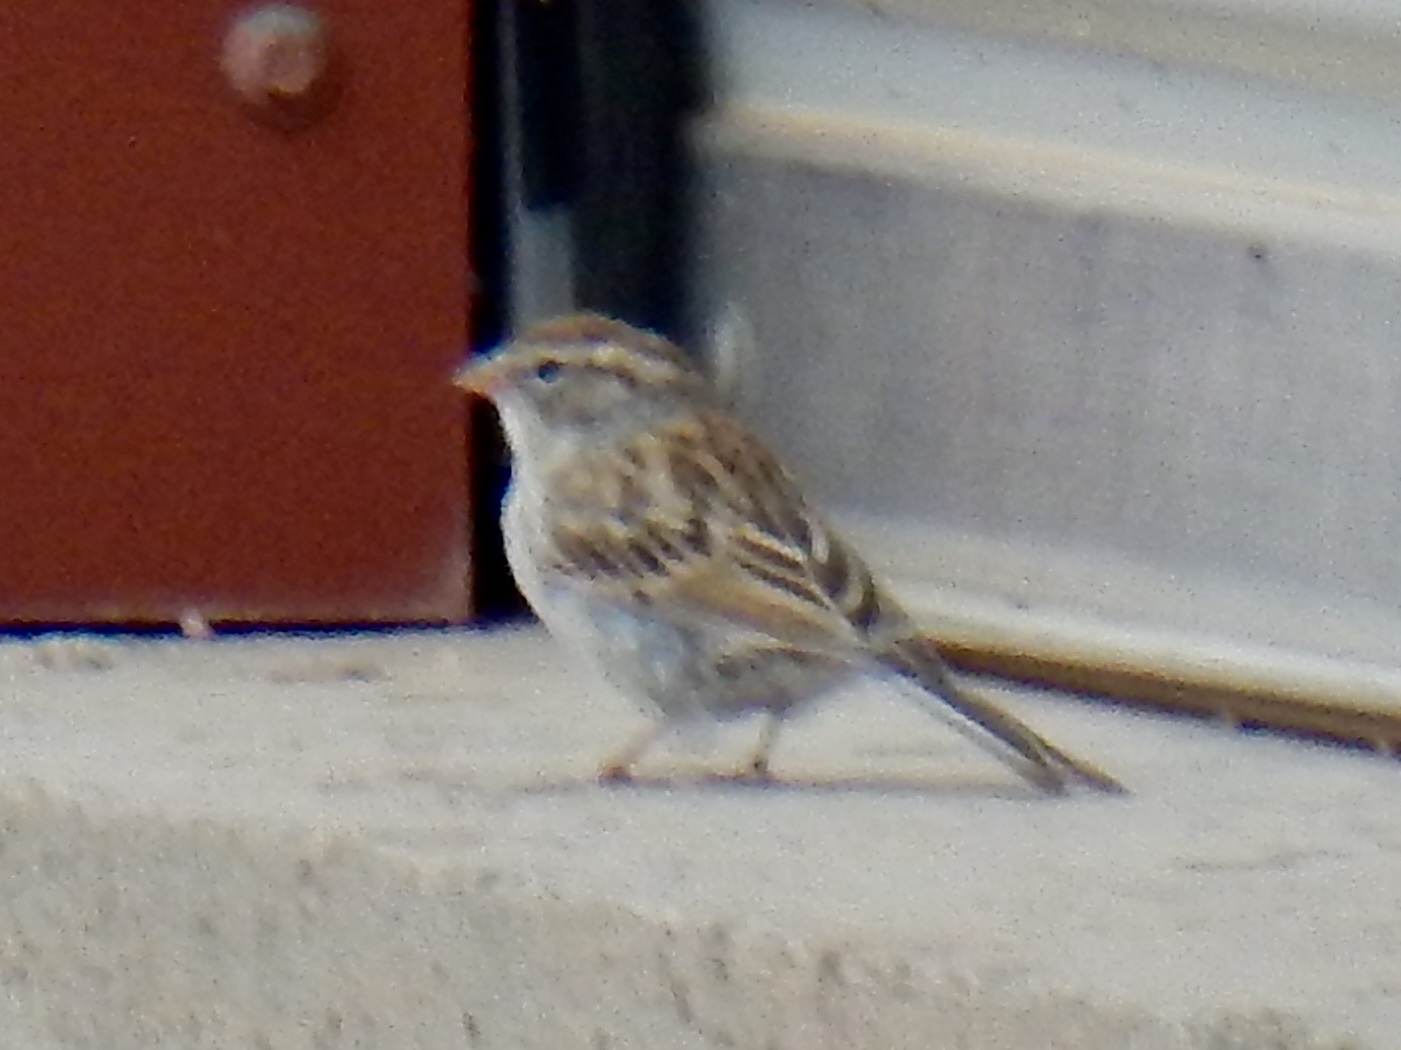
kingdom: Animalia
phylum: Chordata
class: Aves
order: Passeriformes
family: Passerellidae
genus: Spizella
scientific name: Spizella passerina
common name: Chipping sparrow
